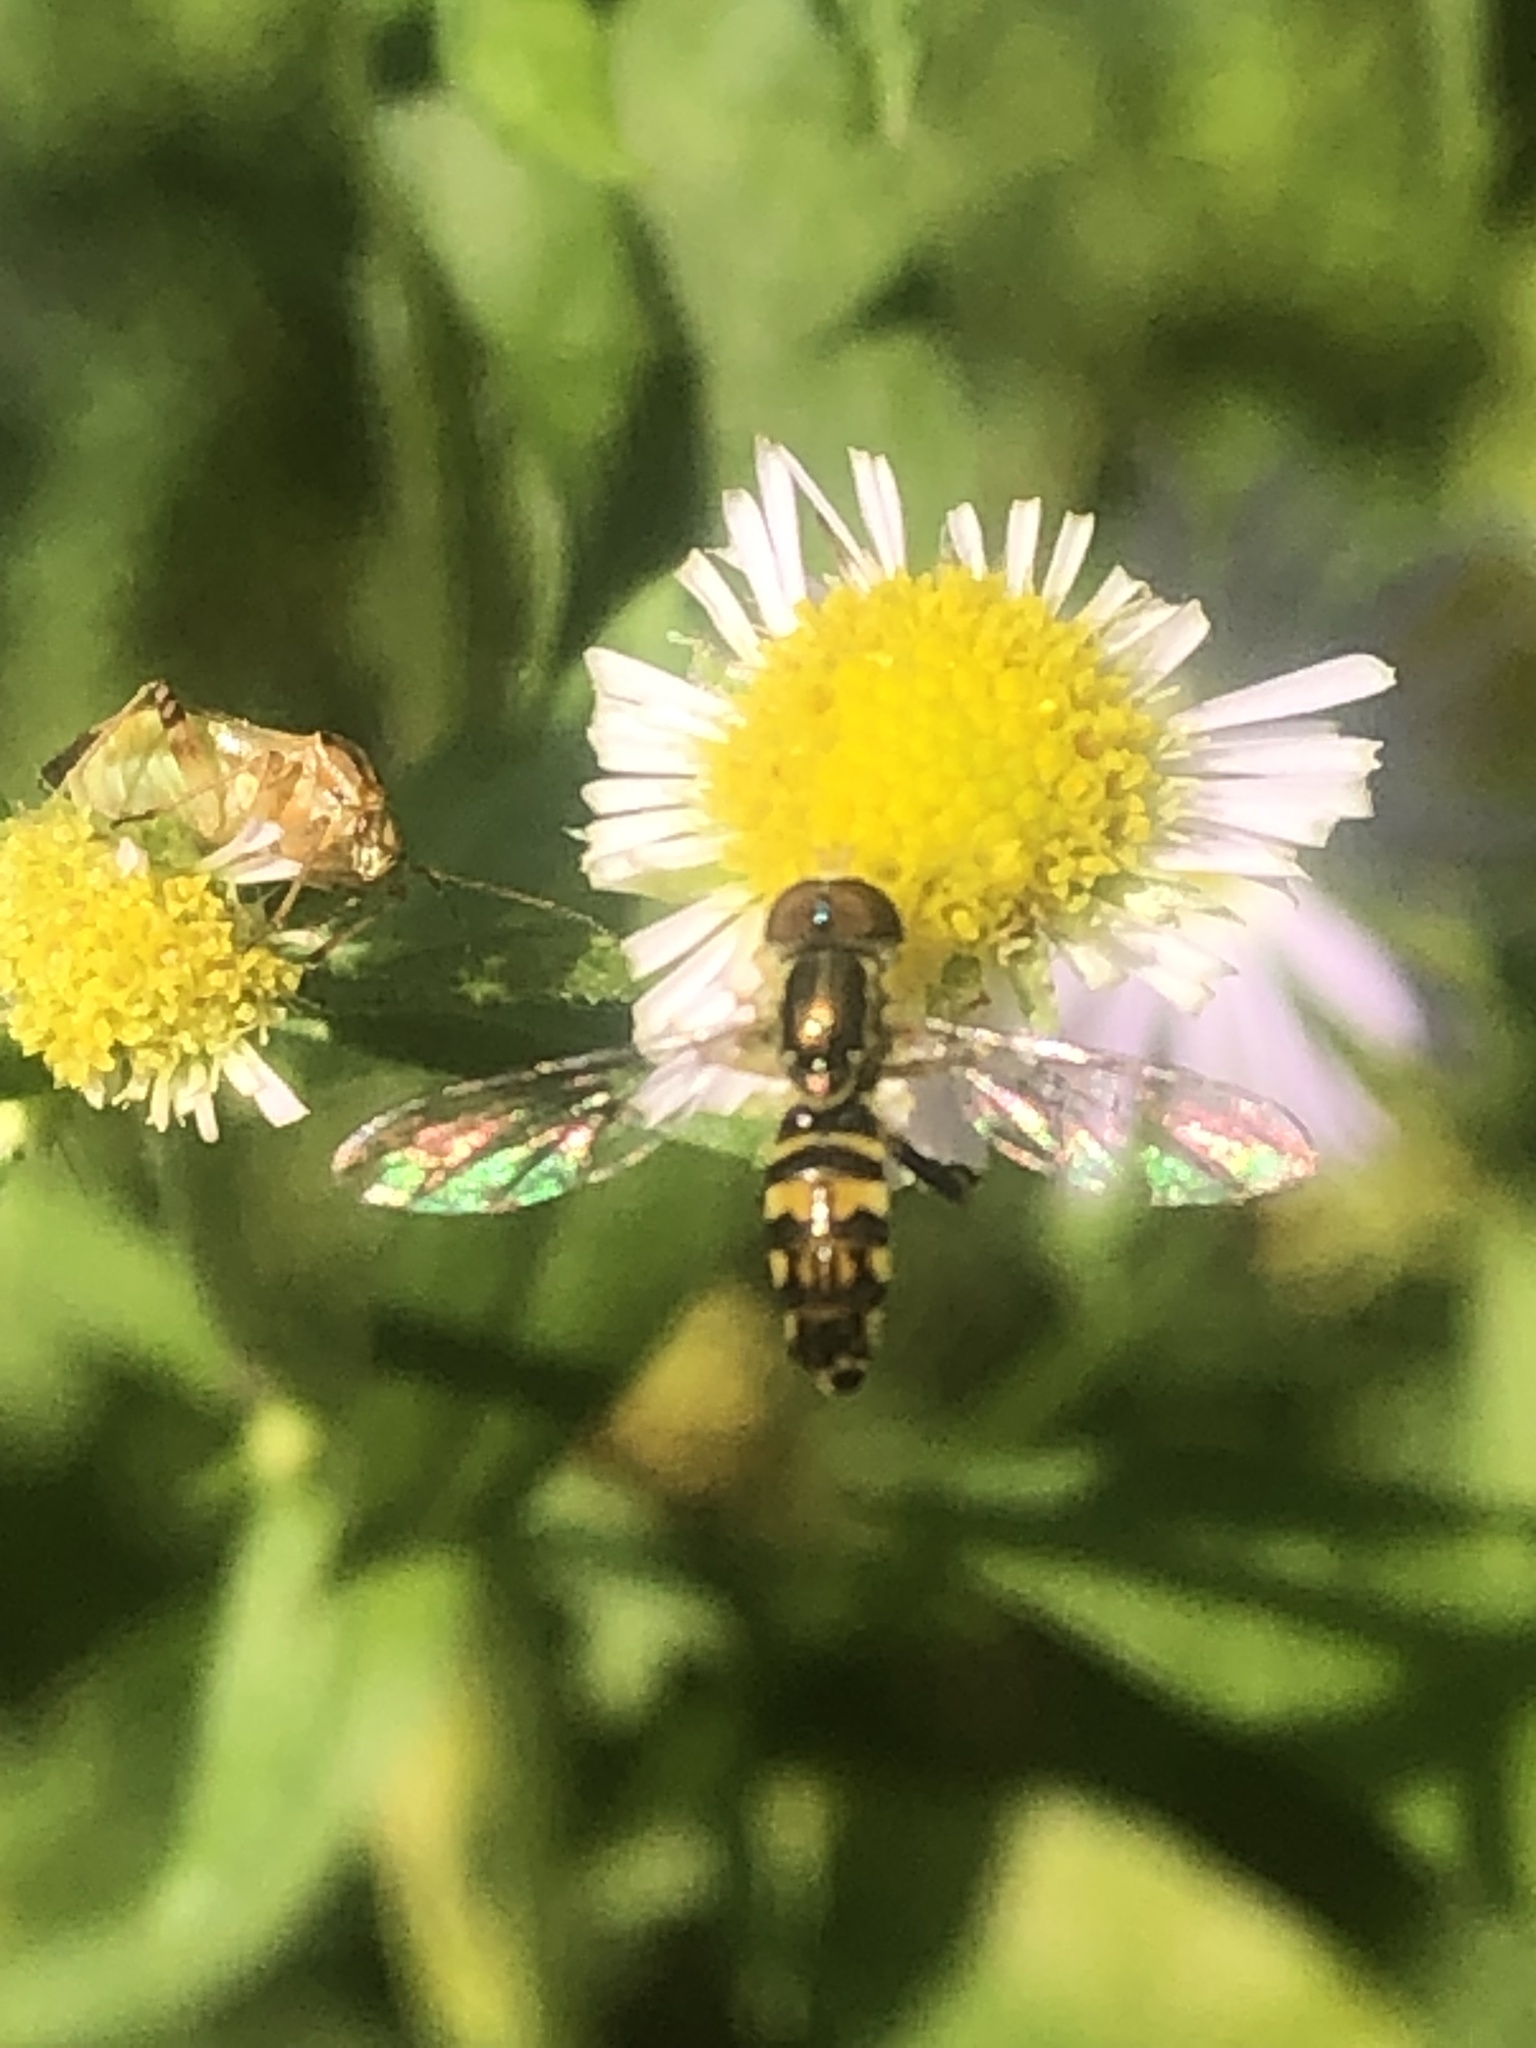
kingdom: Animalia
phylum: Arthropoda
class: Insecta
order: Diptera
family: Syrphidae
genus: Toxomerus
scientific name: Toxomerus geminatus
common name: Eastern calligrapher
